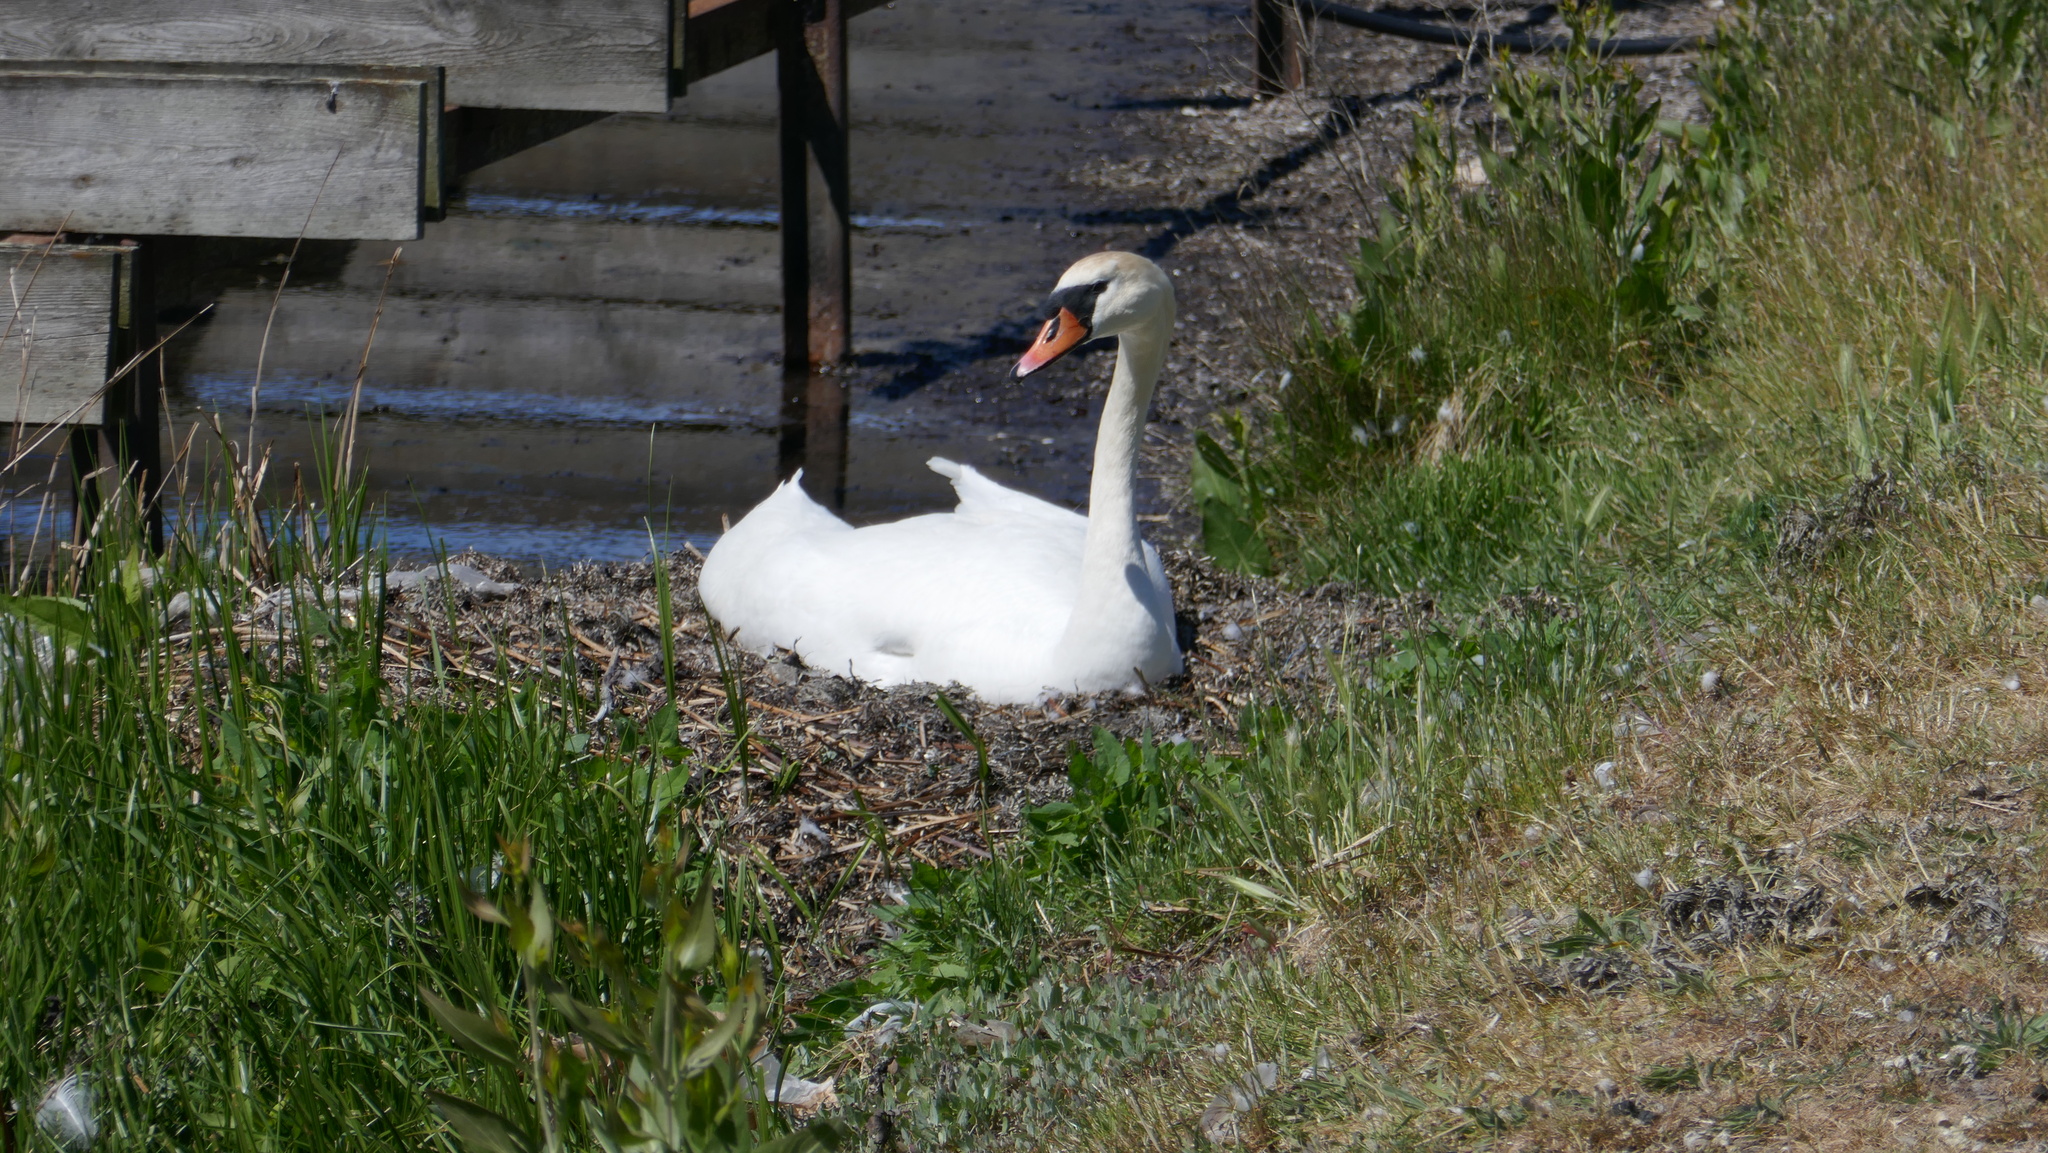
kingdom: Animalia
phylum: Chordata
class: Aves
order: Anseriformes
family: Anatidae
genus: Cygnus
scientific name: Cygnus olor
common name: Mute swan
